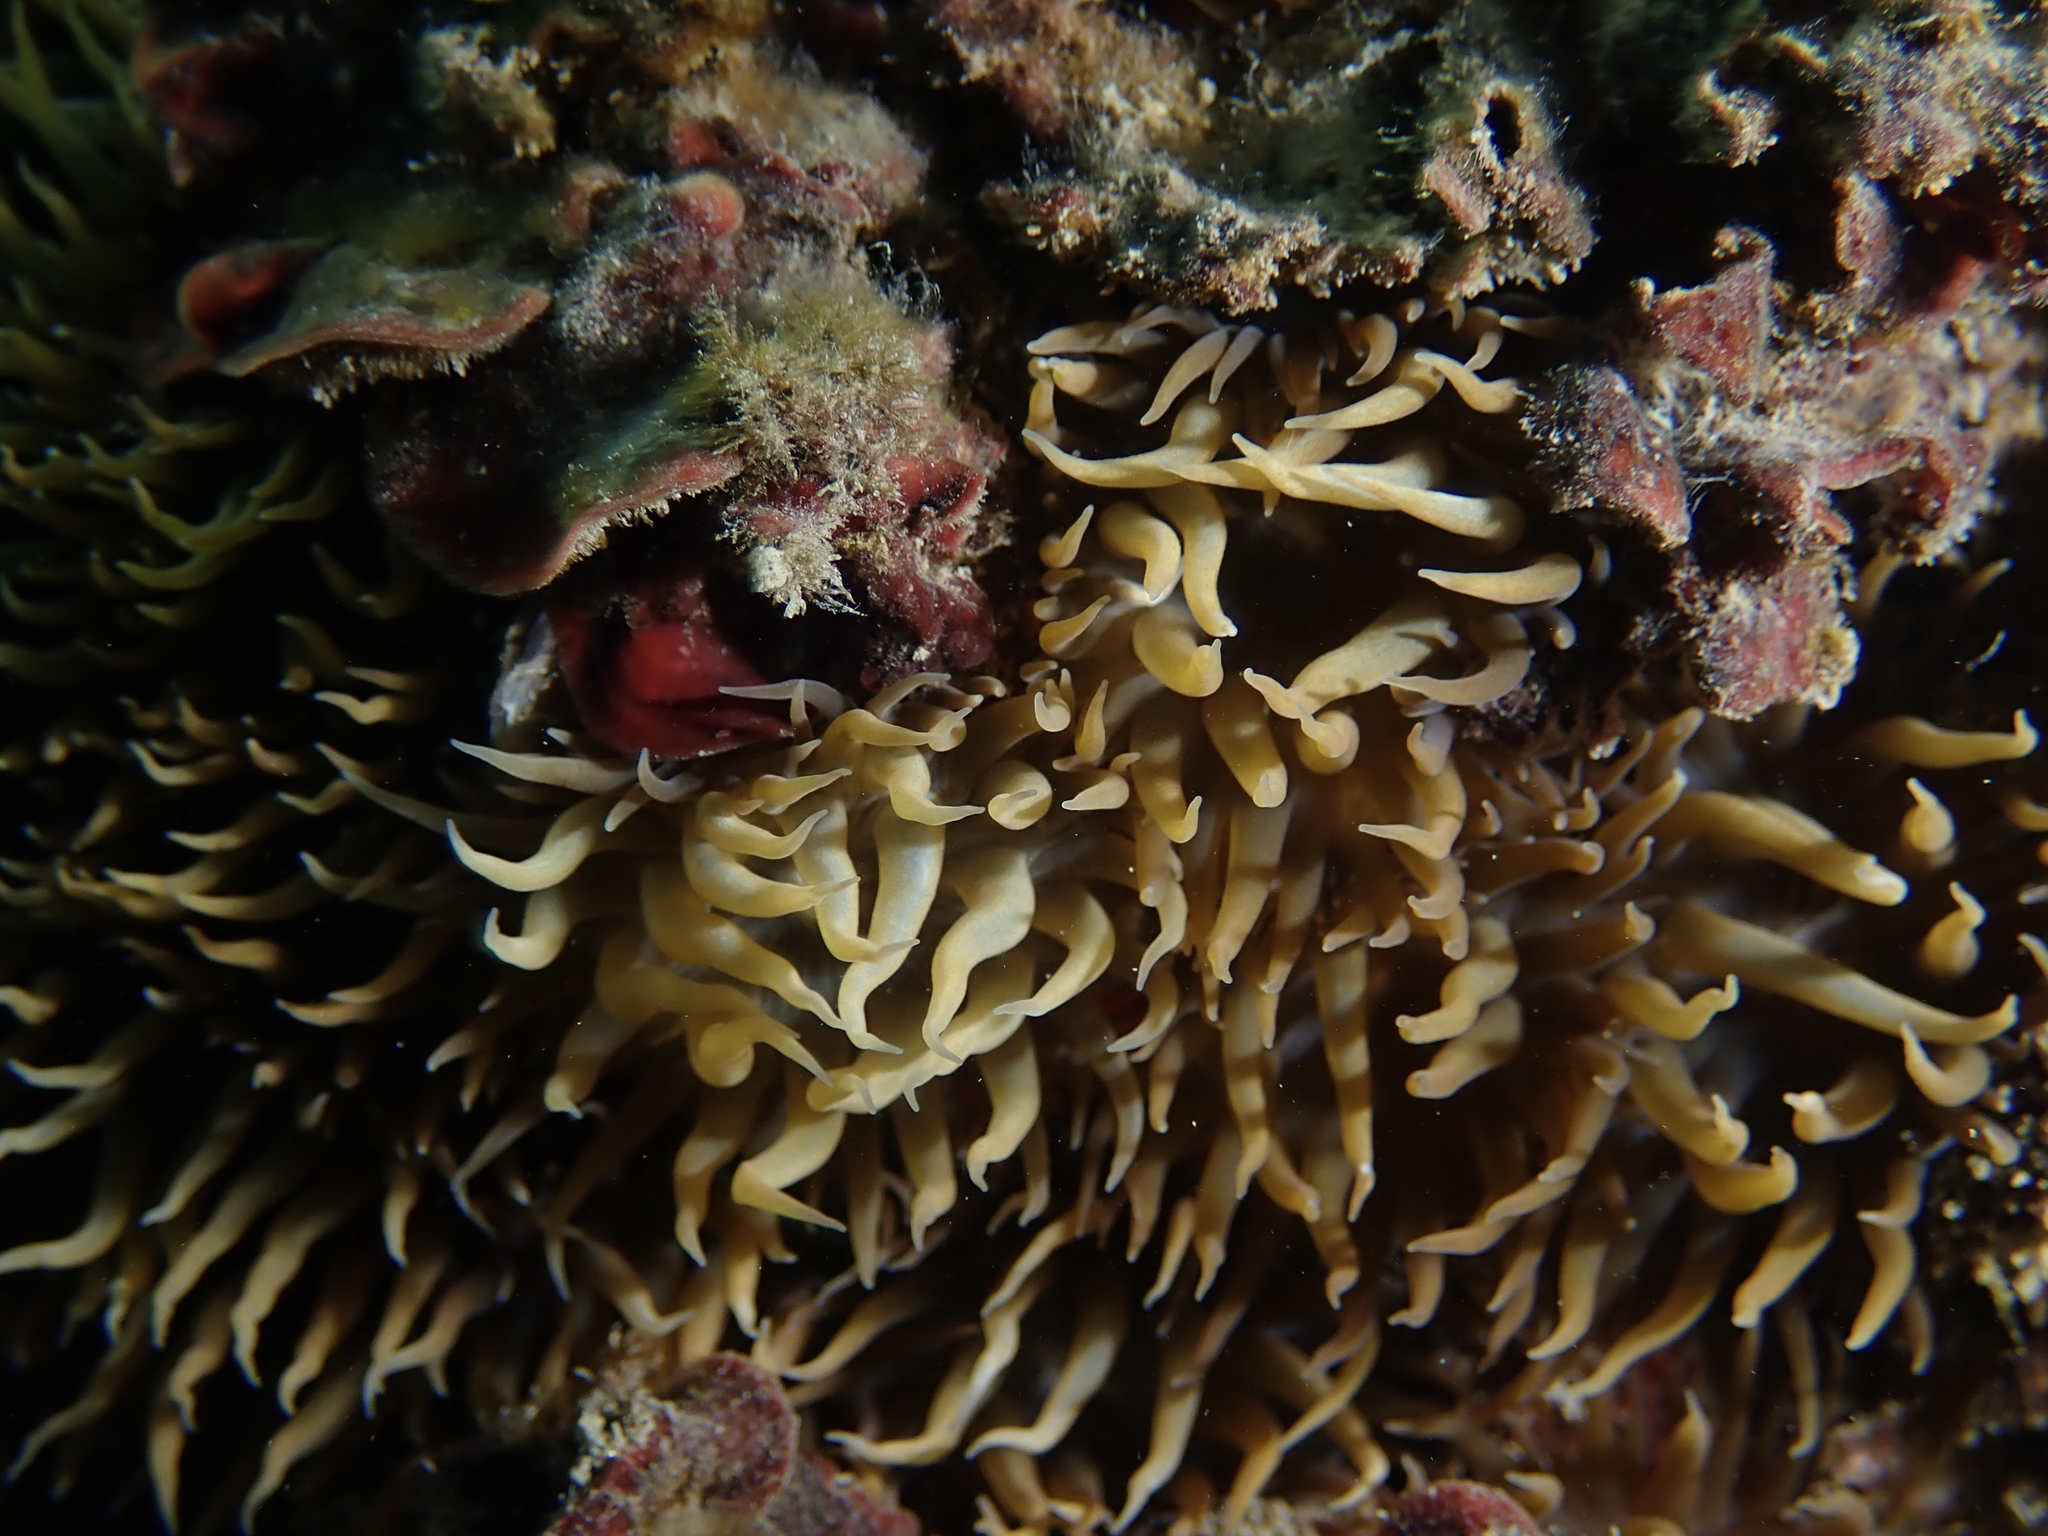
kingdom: Animalia
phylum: Cnidaria
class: Anthozoa
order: Actiniaria
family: Aiptasiidae
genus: Aiptasia
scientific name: Aiptasia couchii
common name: Trumpet anemone
